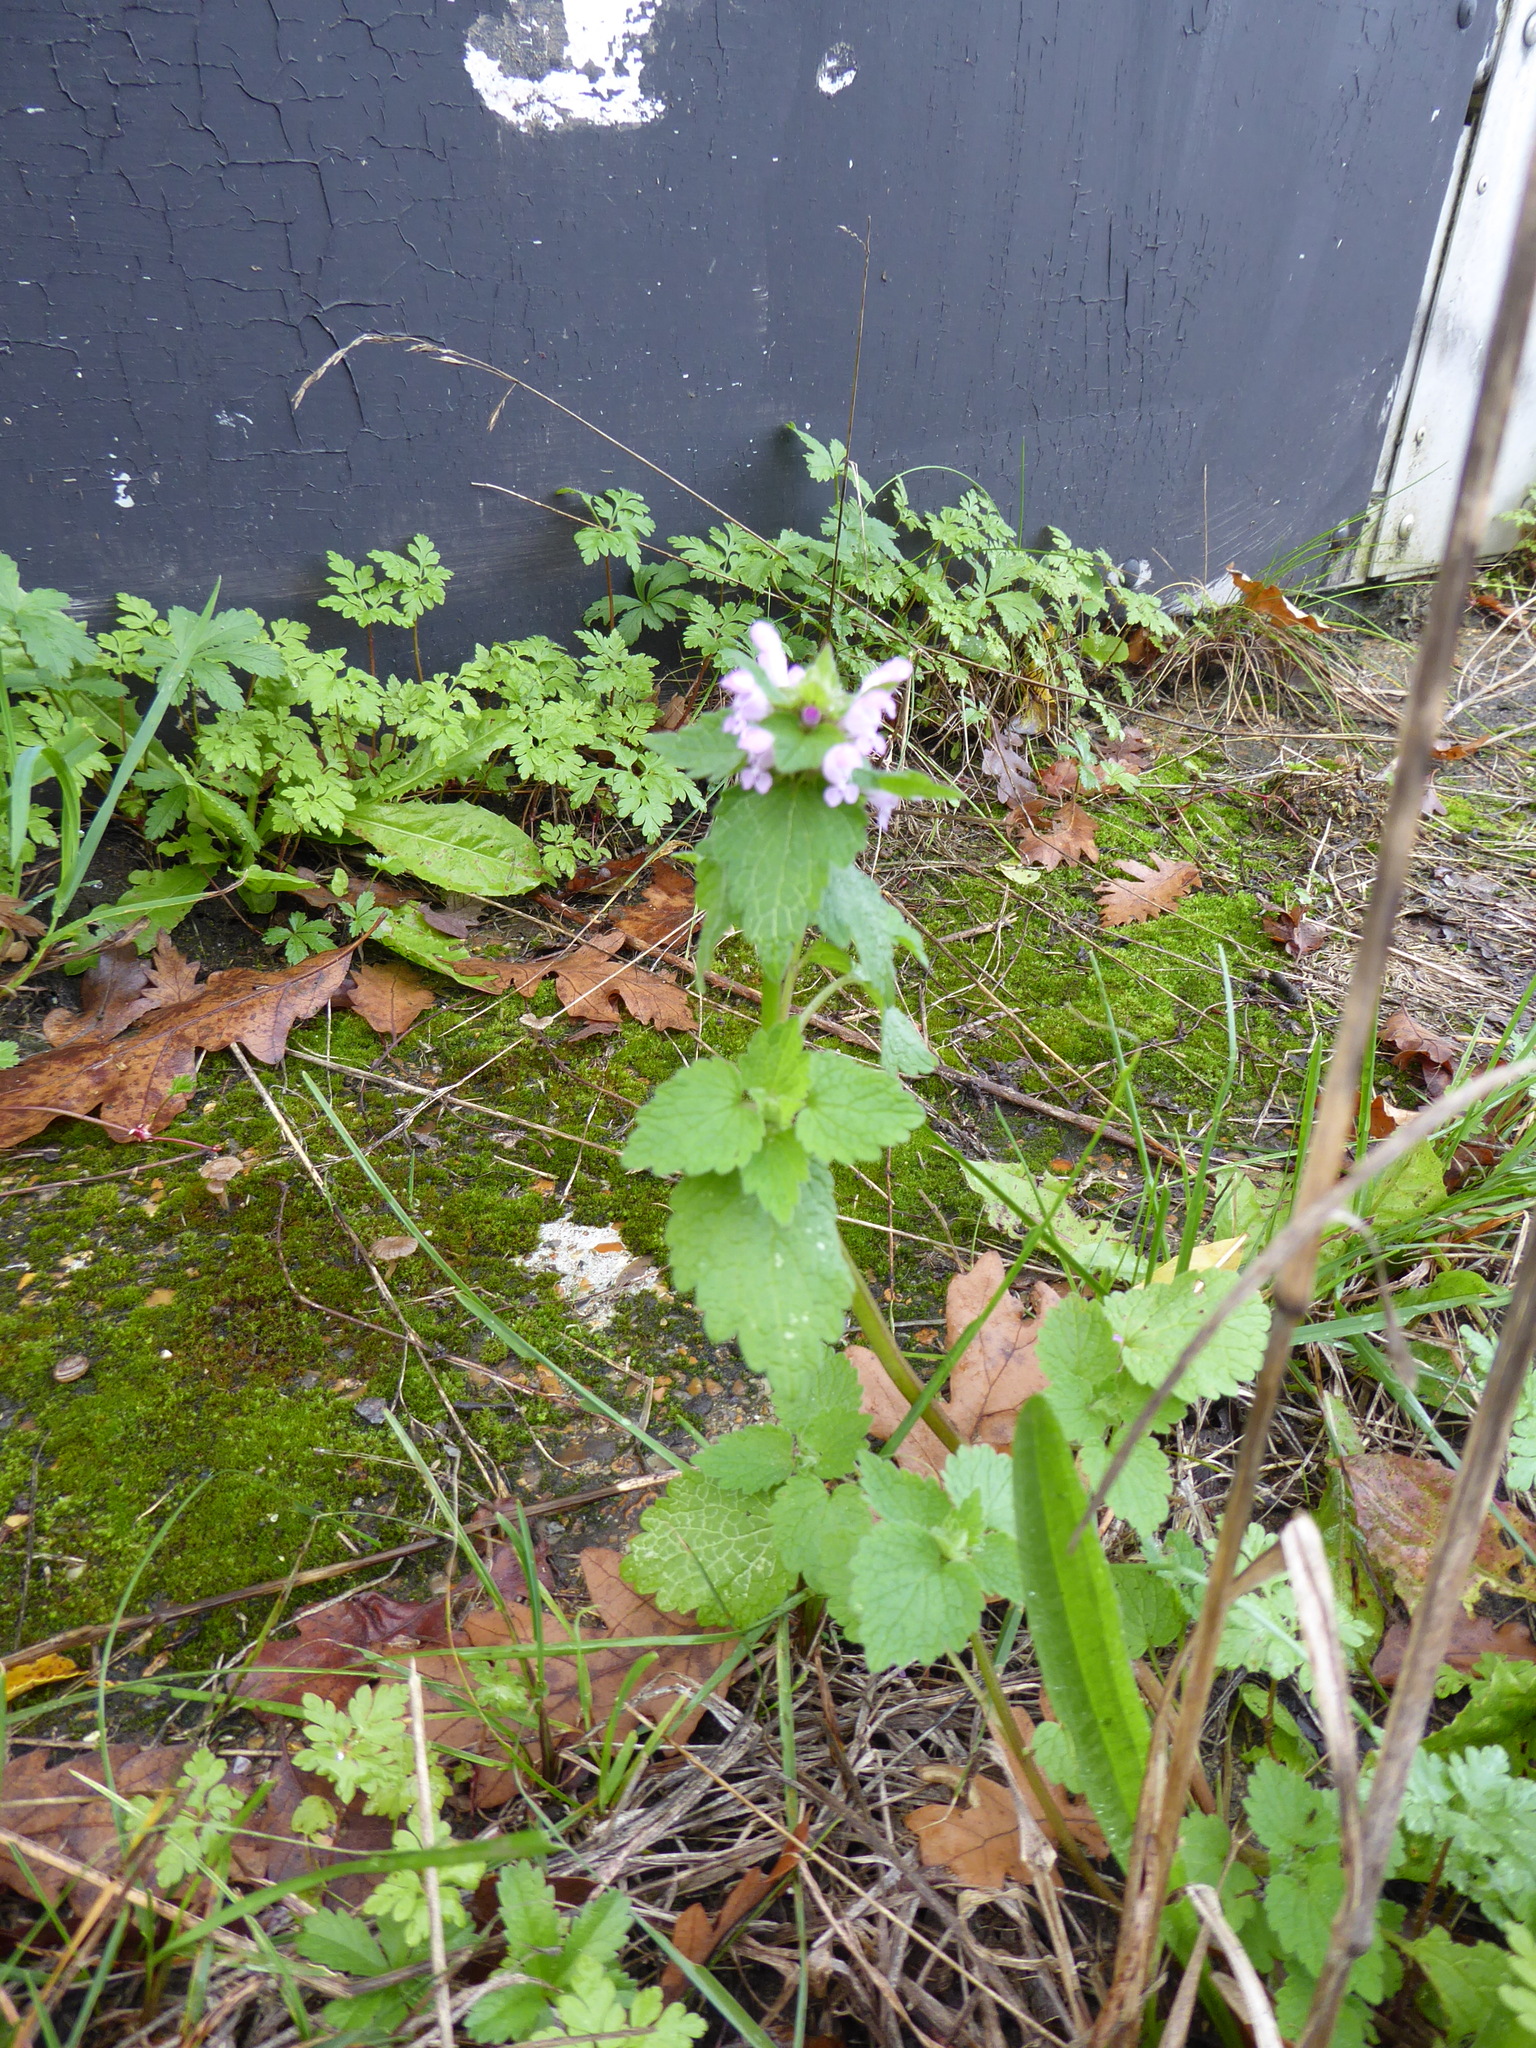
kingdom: Plantae
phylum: Tracheophyta
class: Magnoliopsida
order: Lamiales
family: Lamiaceae
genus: Lamium
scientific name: Lamium purpureum
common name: Red dead-nettle
